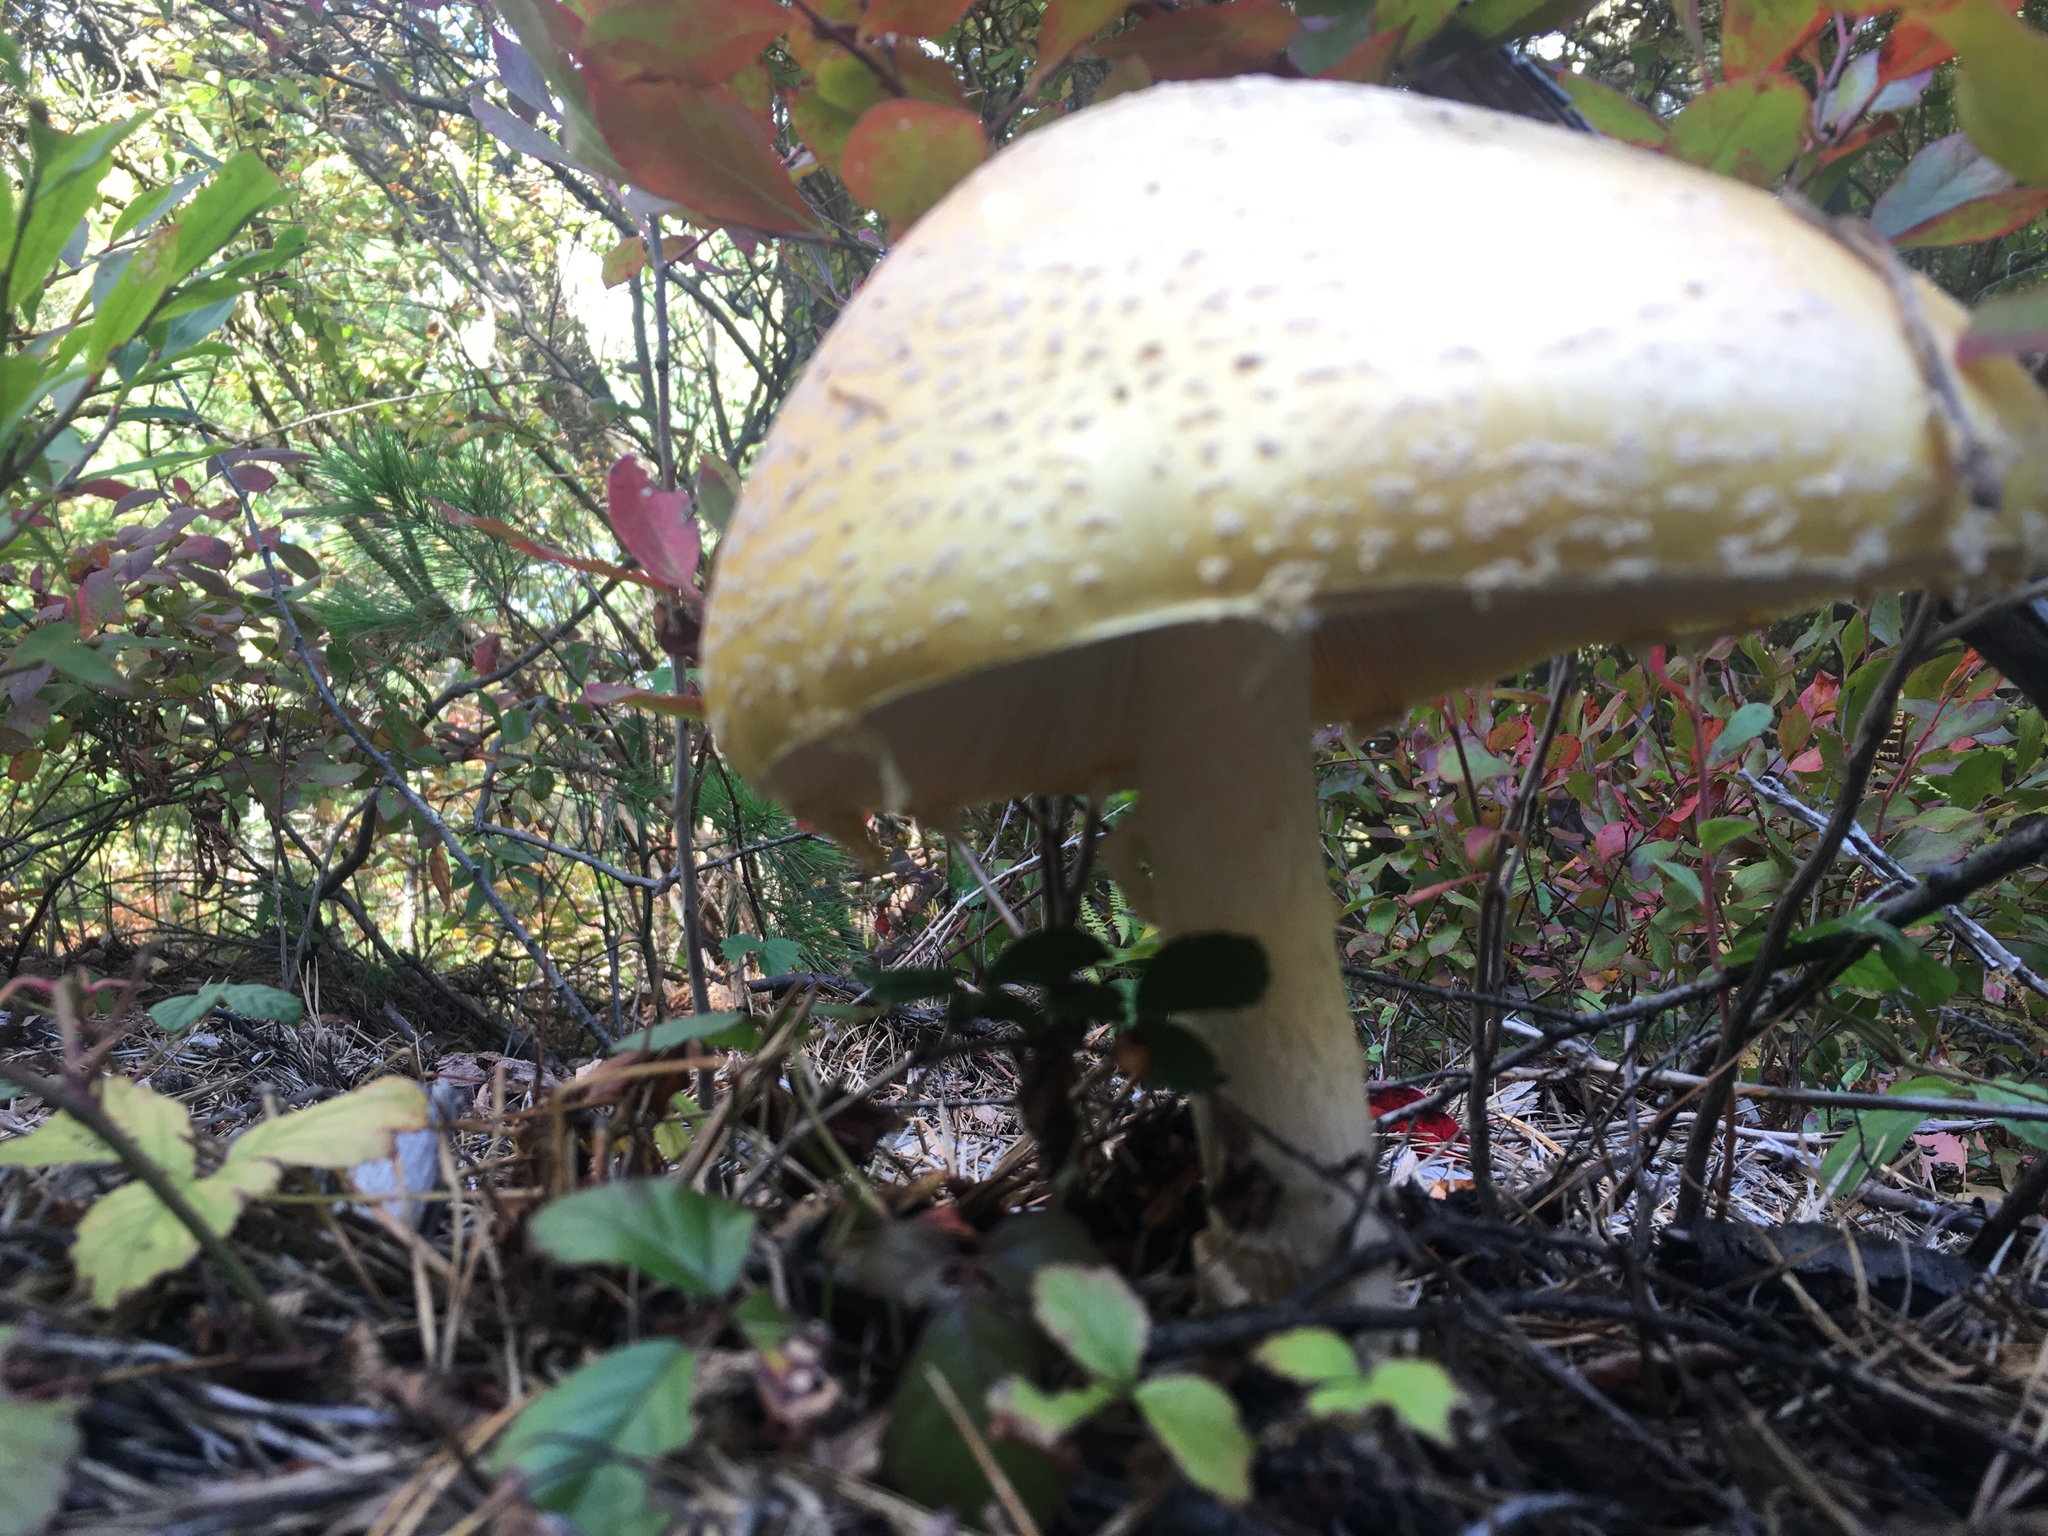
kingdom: Fungi
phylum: Basidiomycota
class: Agaricomycetes
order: Agaricales
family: Amanitaceae
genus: Amanita
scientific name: Amanita muscaria
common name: Fly agaric
